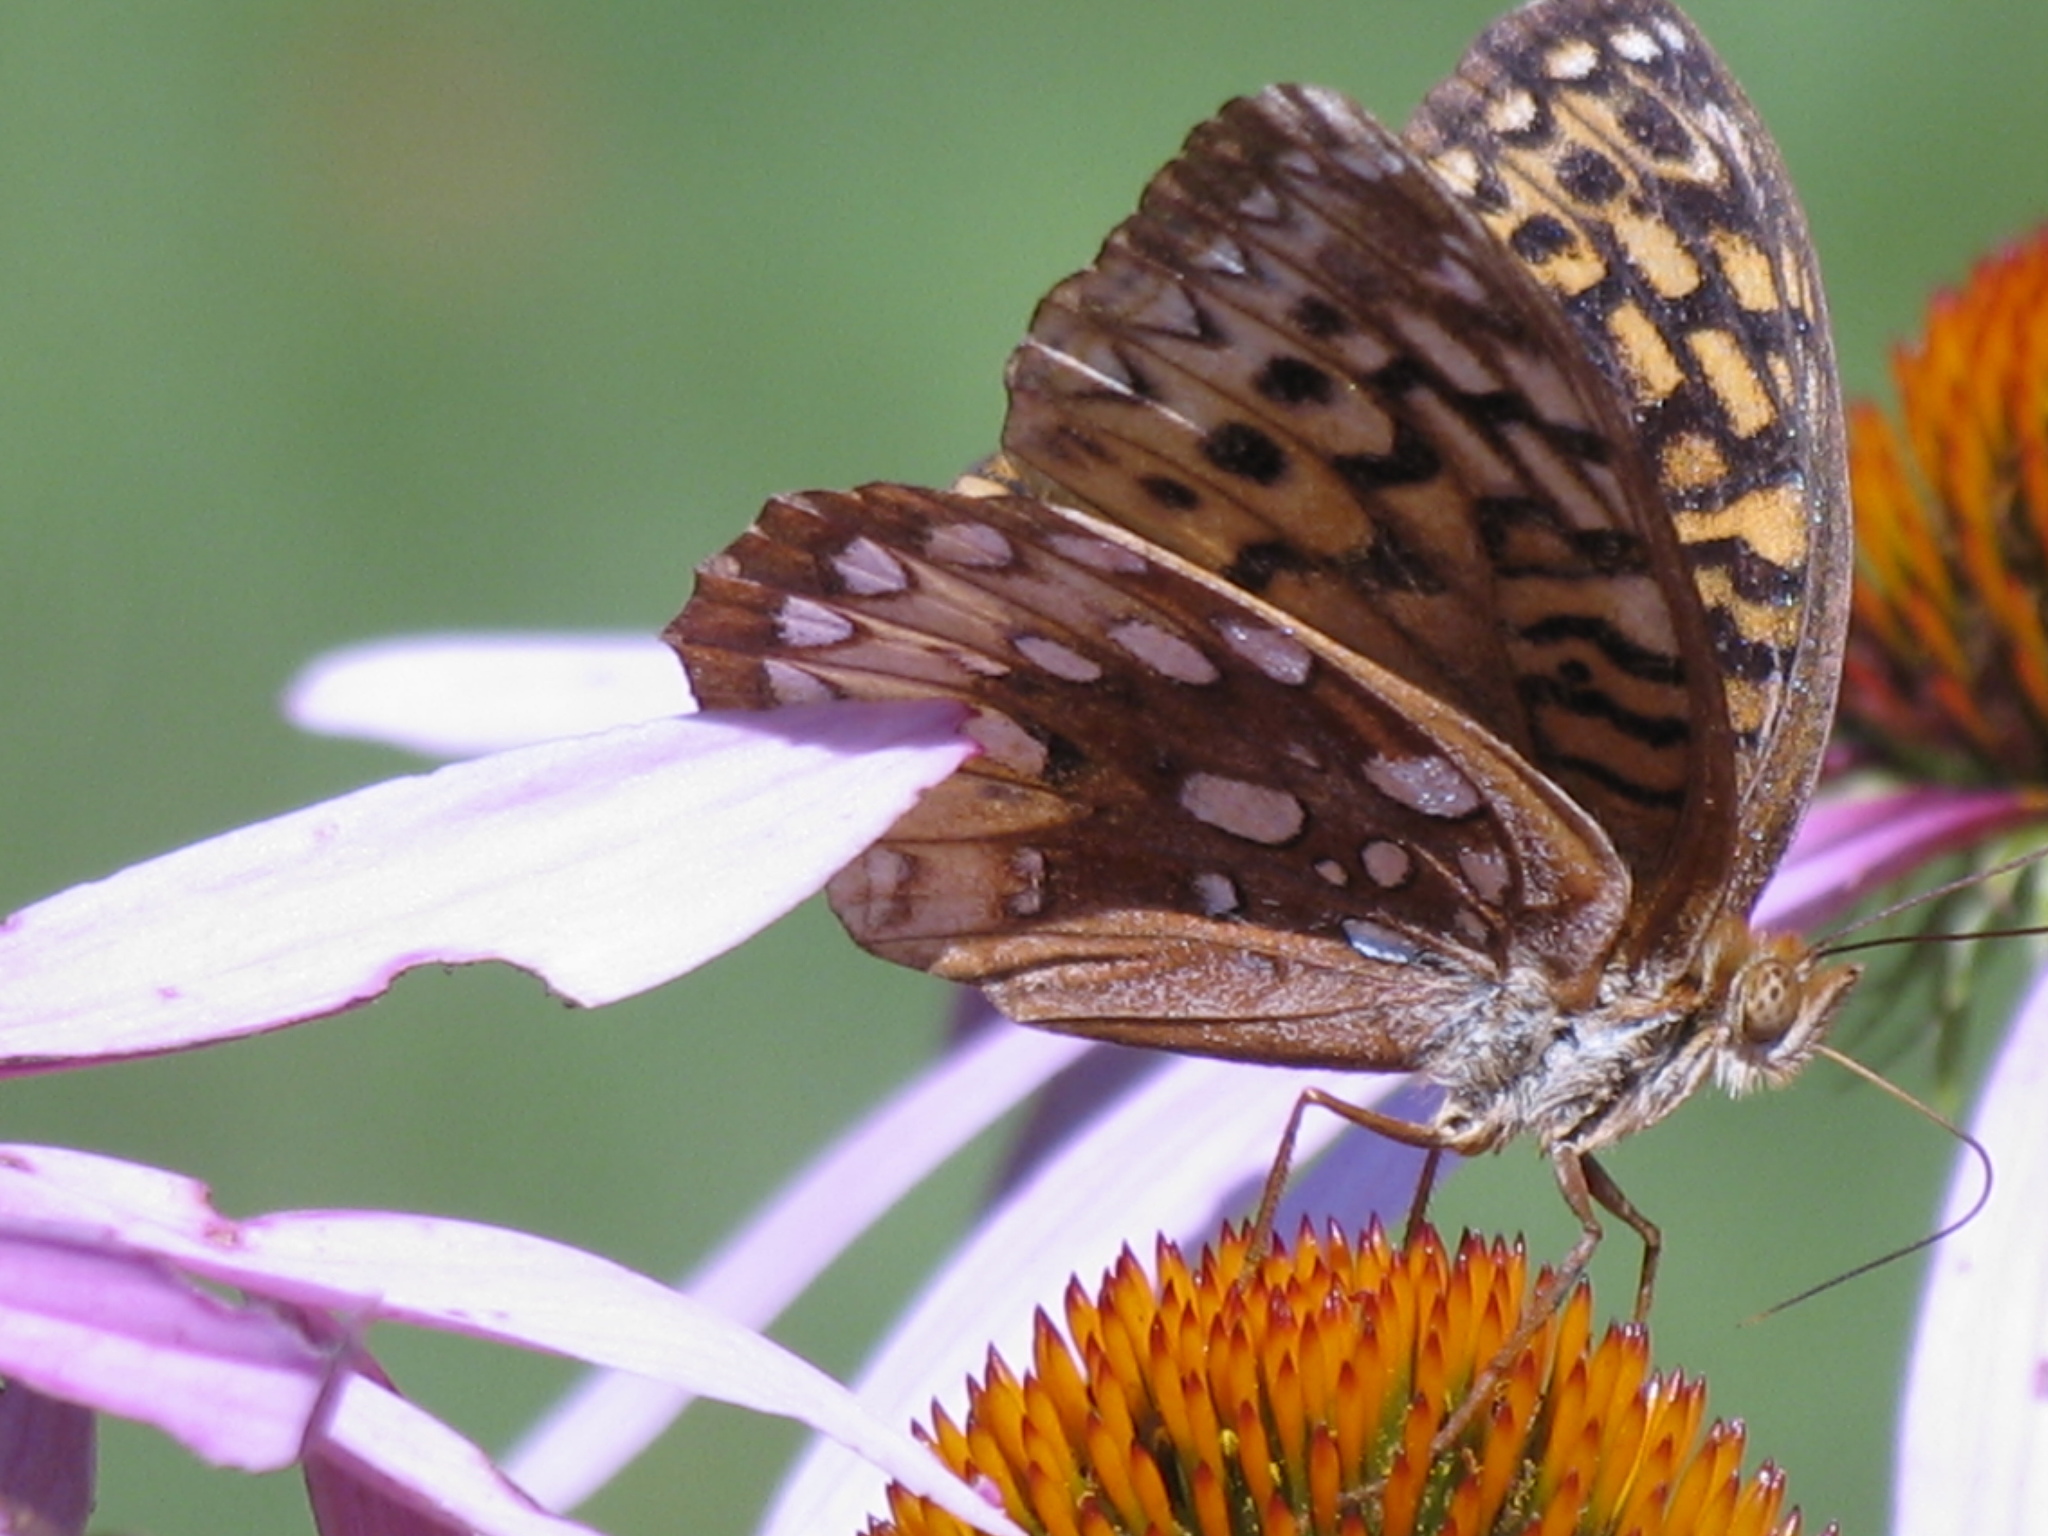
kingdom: Animalia
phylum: Arthropoda
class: Insecta
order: Lepidoptera
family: Nymphalidae
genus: Speyeria
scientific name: Speyeria cybele
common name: Great spangled fritillary
